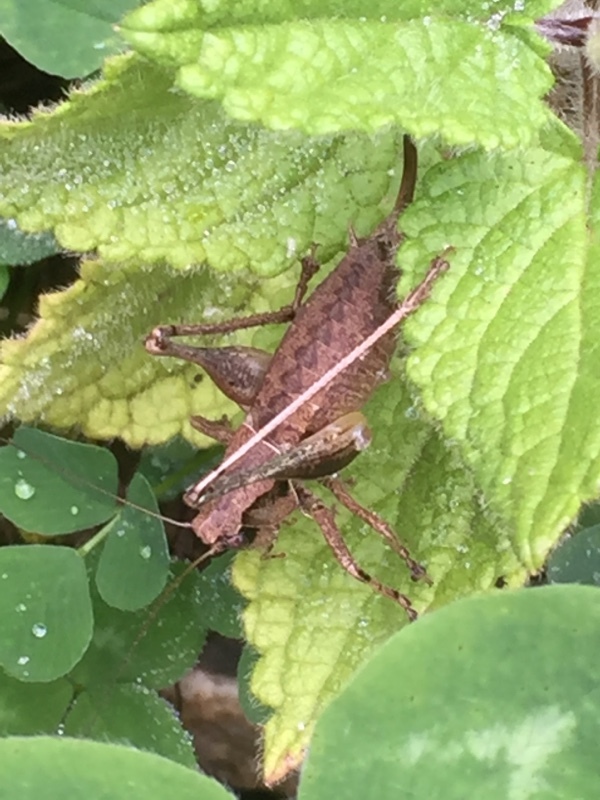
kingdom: Animalia
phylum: Arthropoda
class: Insecta
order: Orthoptera
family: Tettigoniidae
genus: Pholidoptera
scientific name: Pholidoptera griseoaptera
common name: Dark bush-cricket
